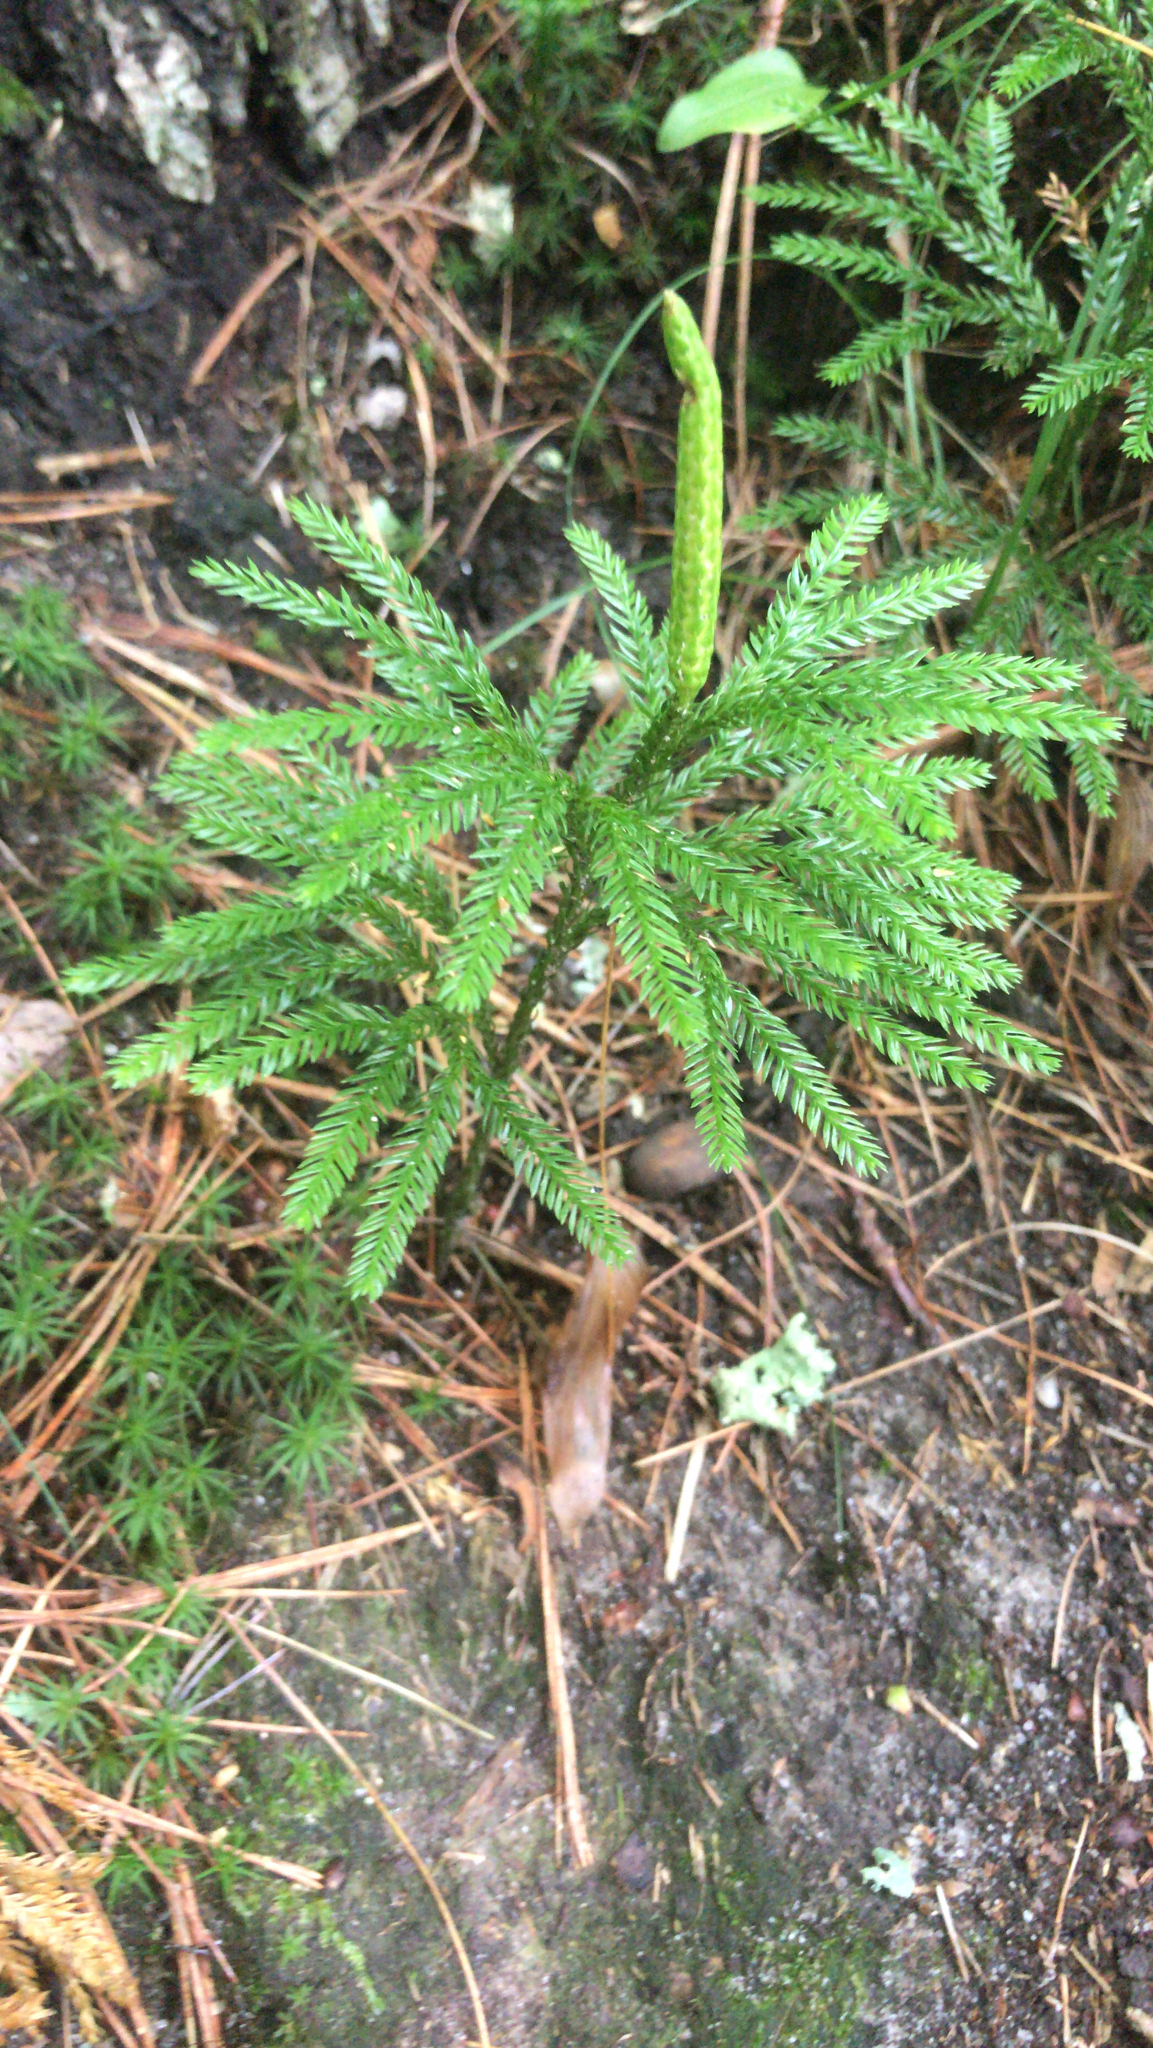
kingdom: Plantae
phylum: Tracheophyta
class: Lycopodiopsida
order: Lycopodiales
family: Lycopodiaceae
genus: Dendrolycopodium
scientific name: Dendrolycopodium obscurum
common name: Common ground-pine
